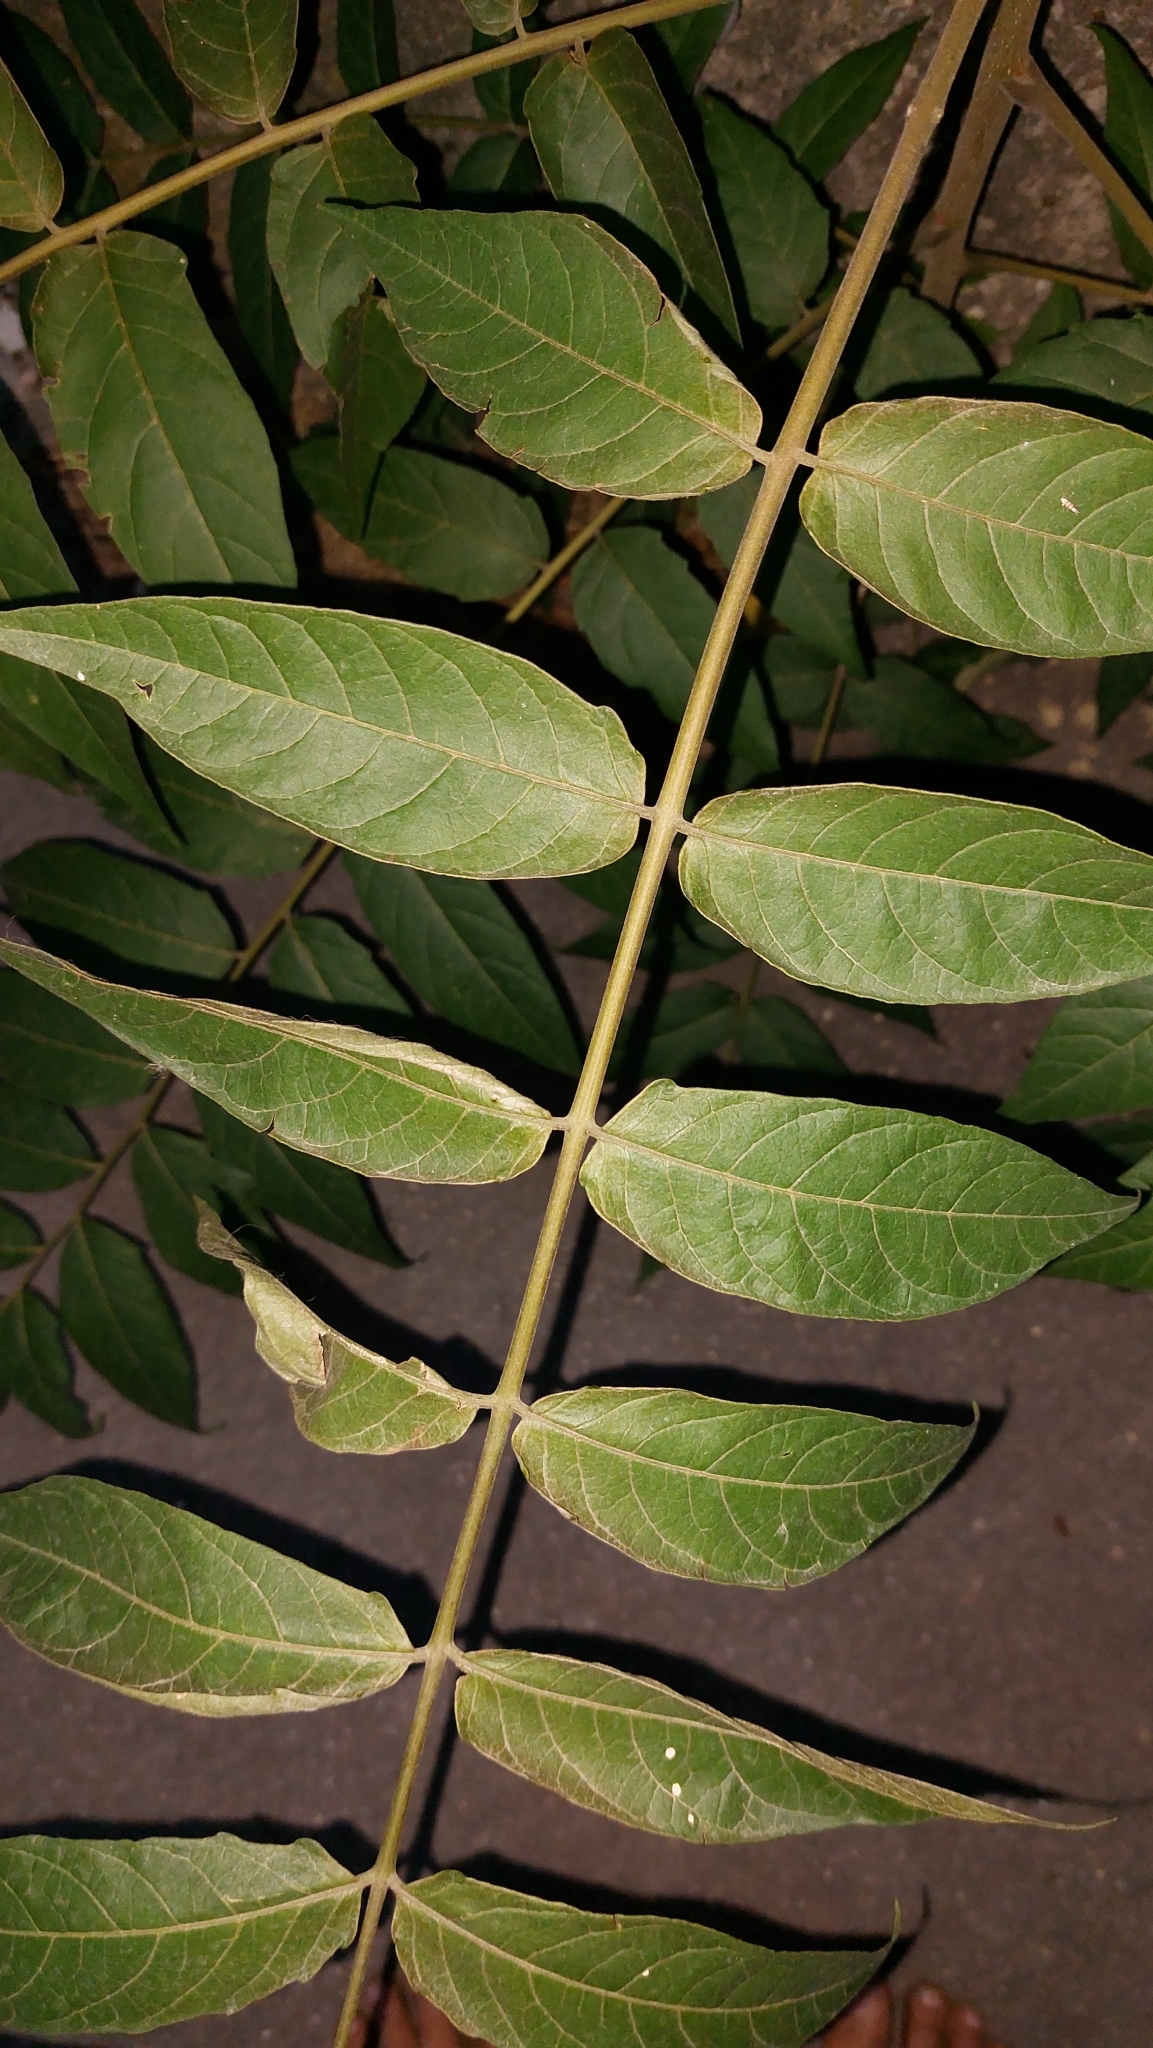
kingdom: Plantae
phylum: Tracheophyta
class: Magnoliopsida
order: Sapindales
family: Simaroubaceae
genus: Ailanthus
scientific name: Ailanthus altissima
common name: Tree-of-heaven
